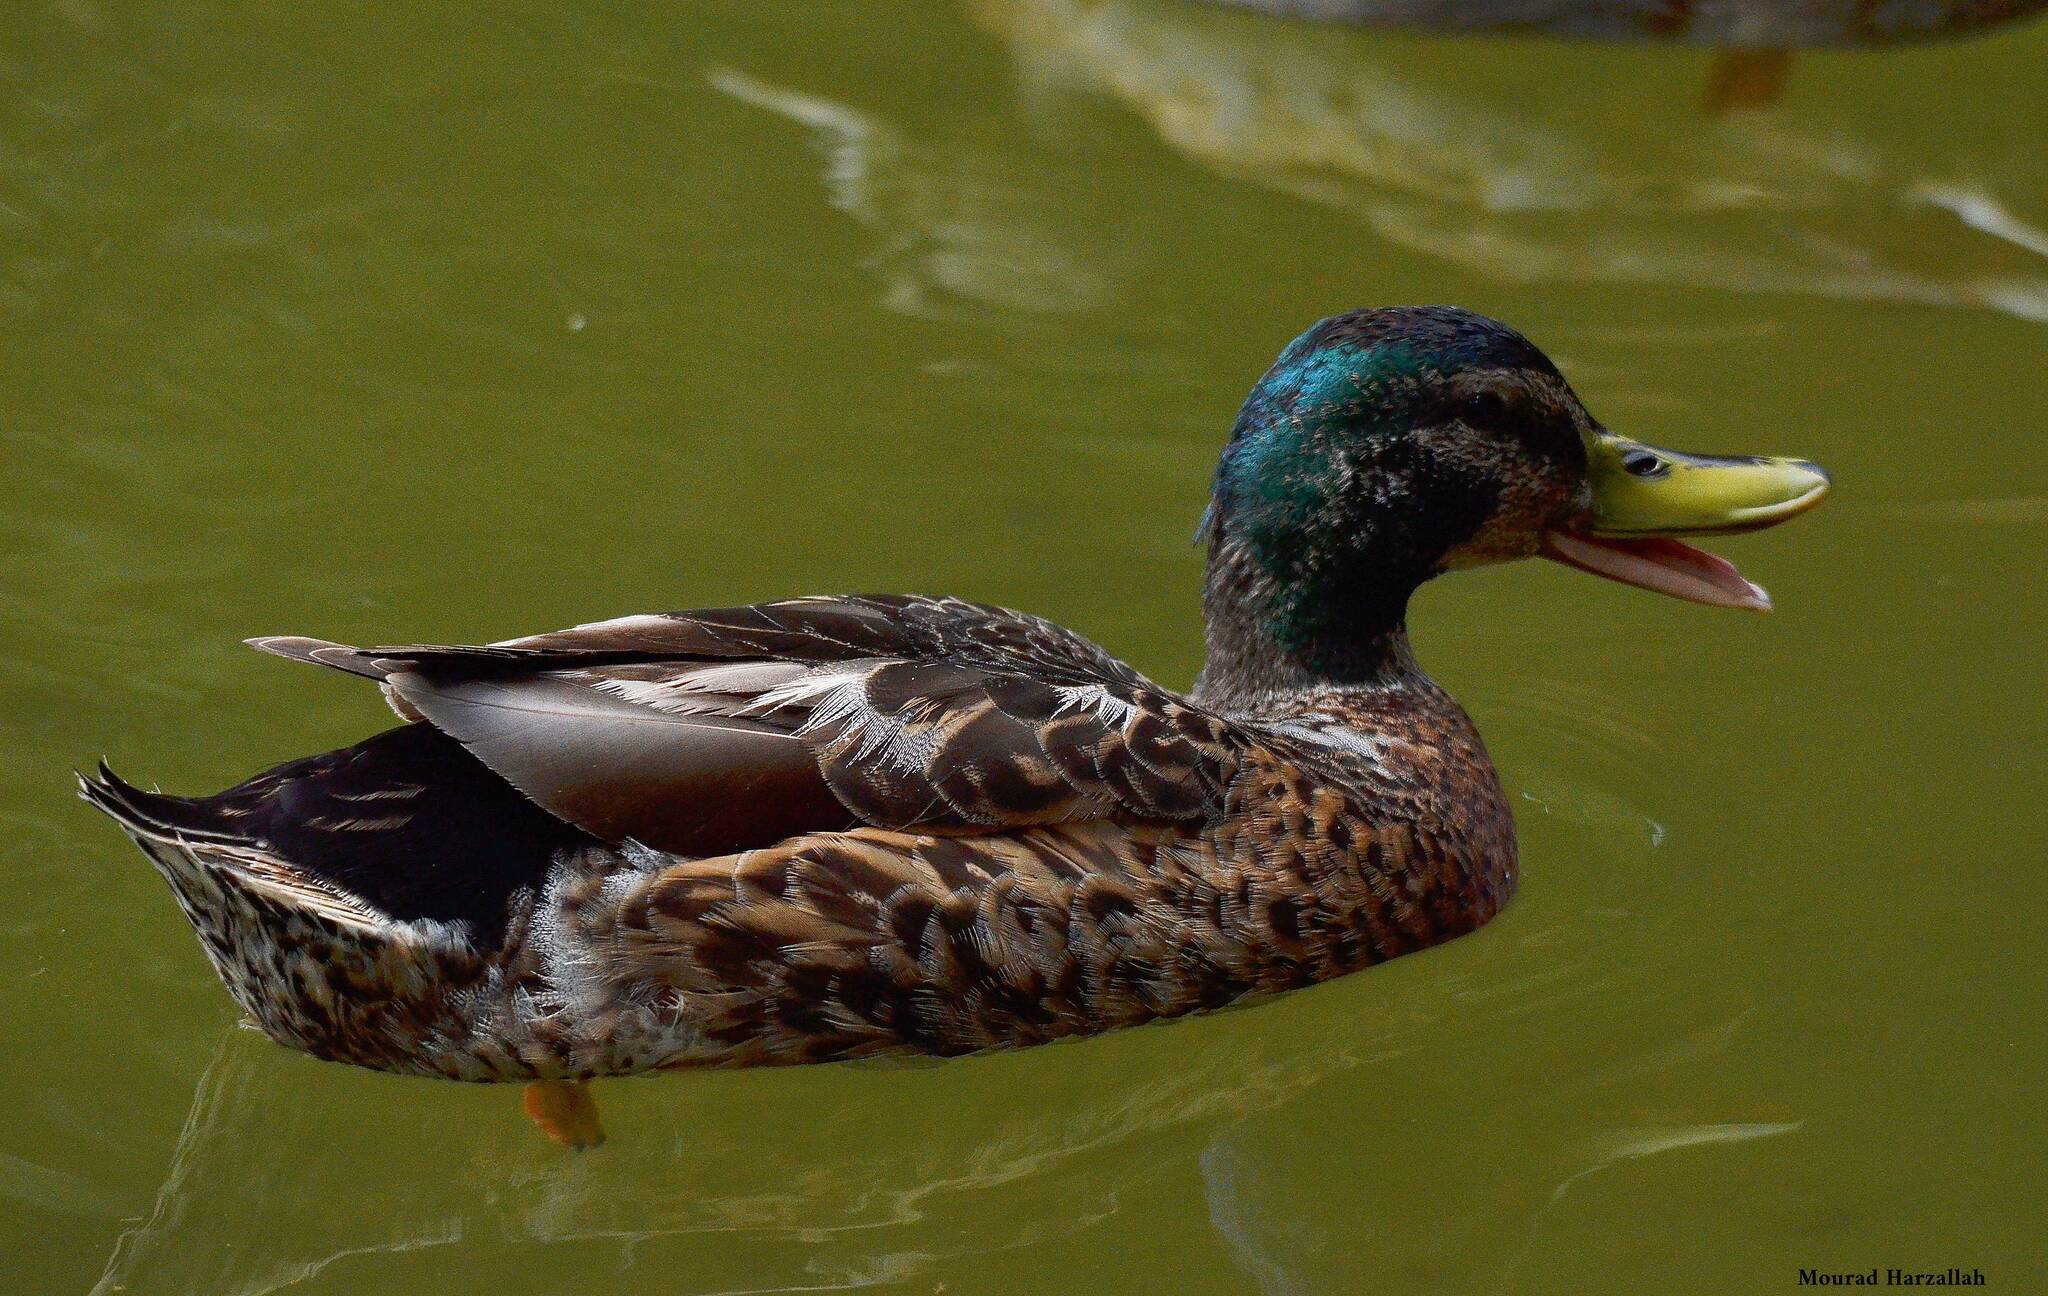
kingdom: Animalia
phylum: Chordata
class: Aves
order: Anseriformes
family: Anatidae
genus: Anas
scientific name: Anas platyrhynchos
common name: Mallard
